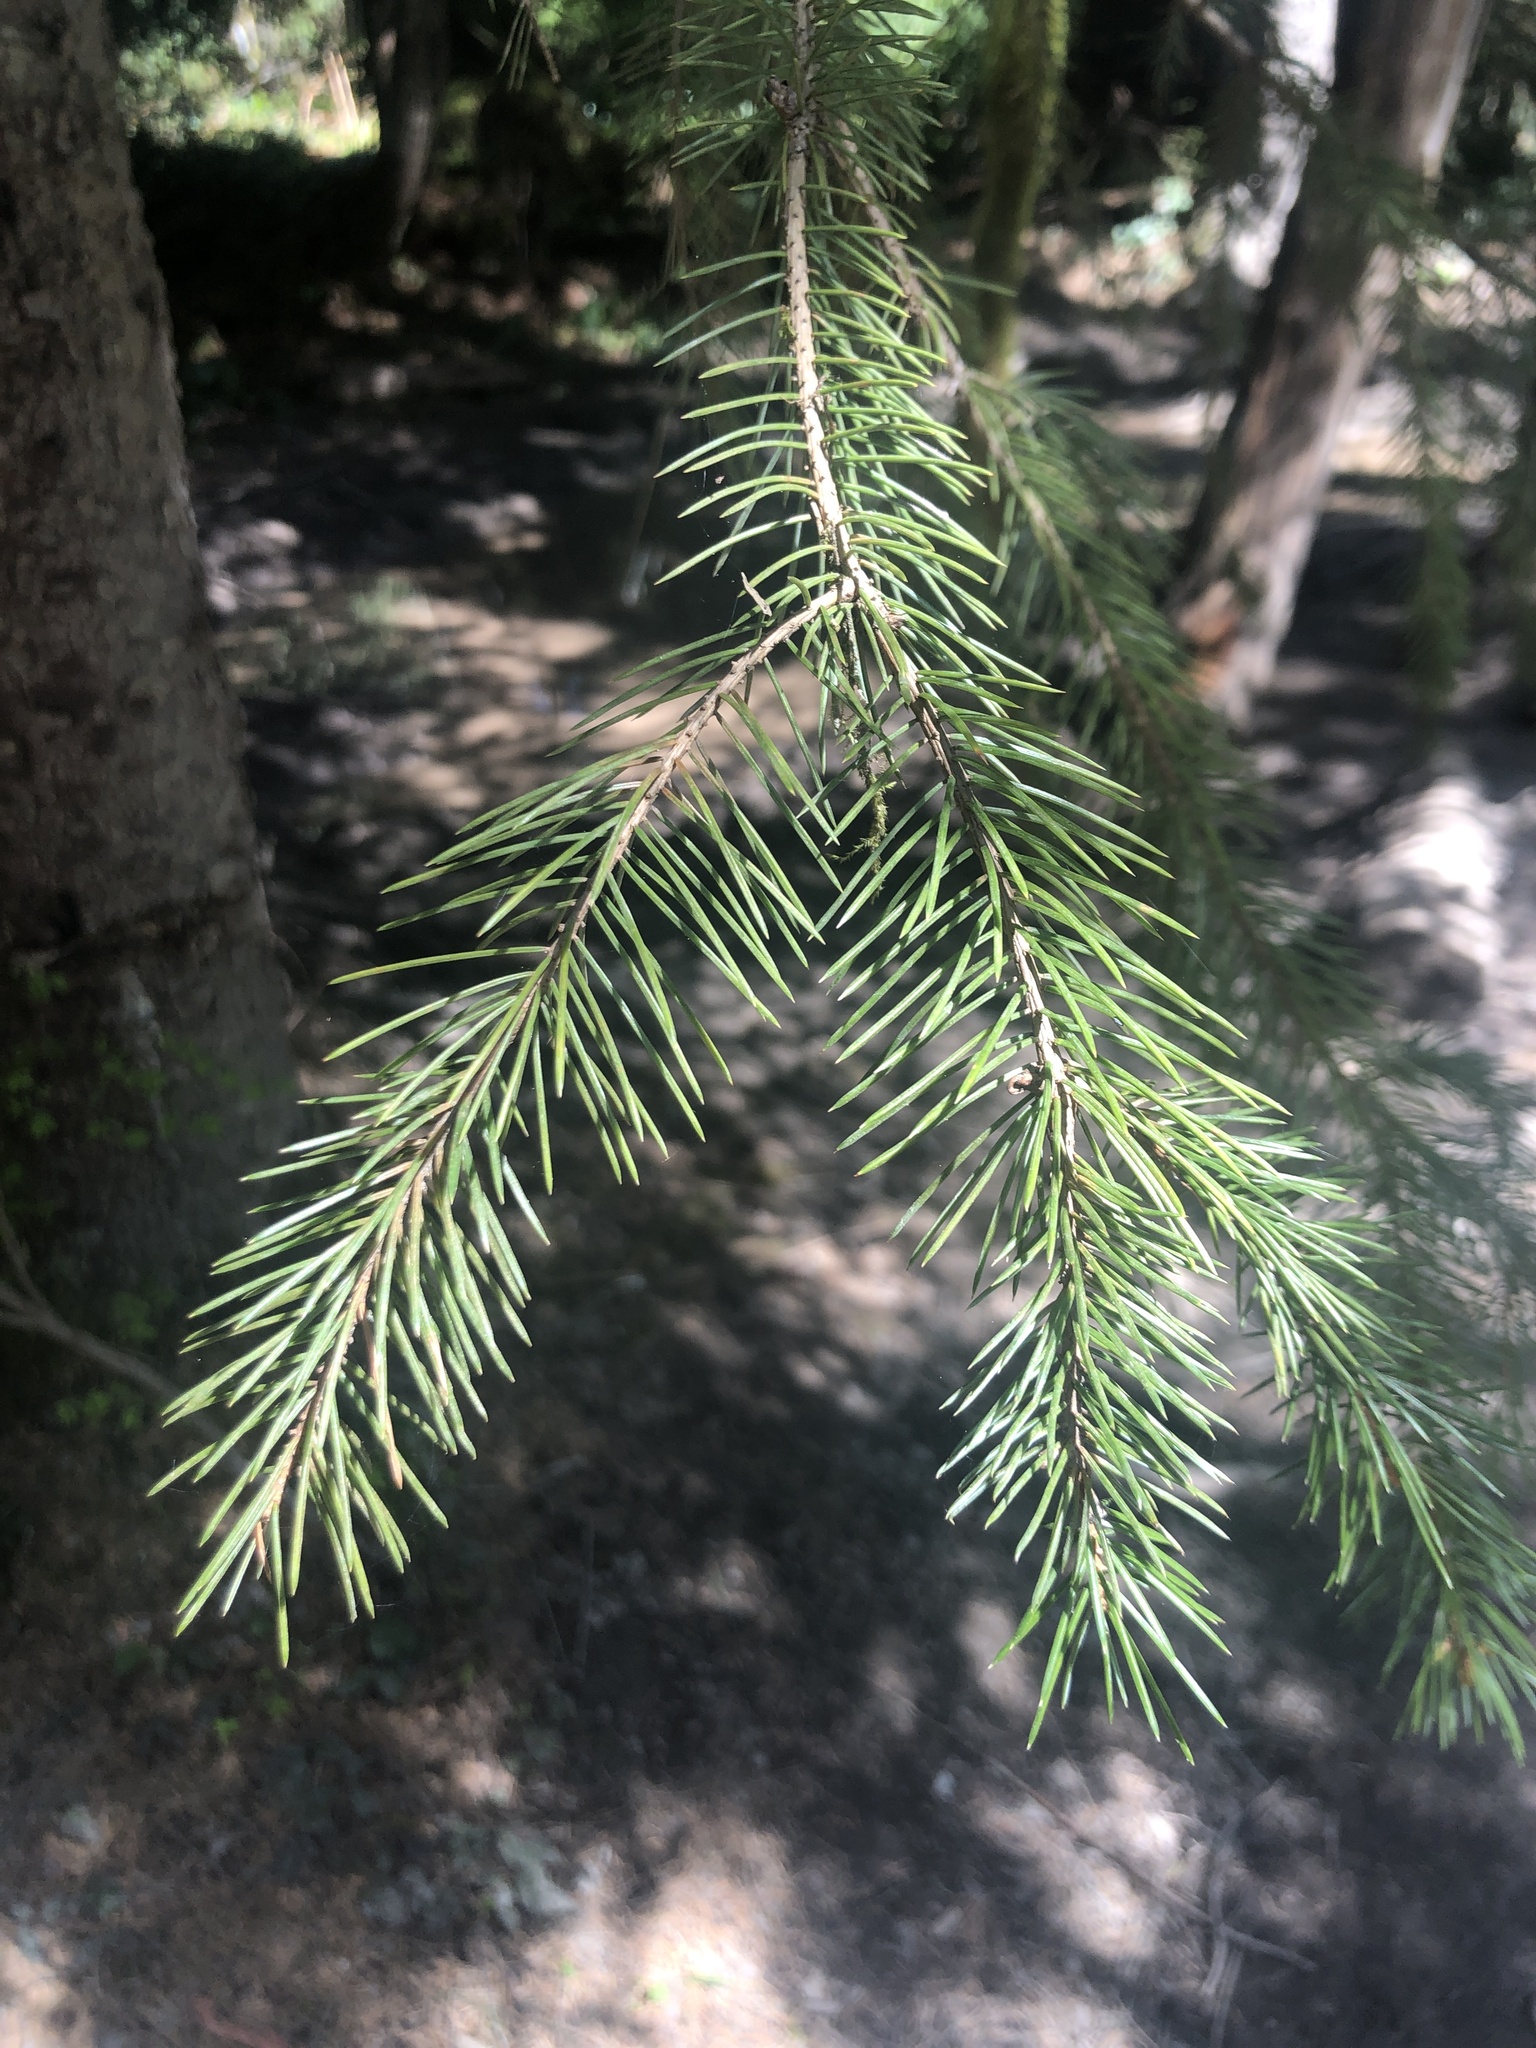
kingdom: Plantae
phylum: Tracheophyta
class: Pinopsida
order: Pinales
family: Pinaceae
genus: Picea
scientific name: Picea sitchensis
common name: Sitka spruce
